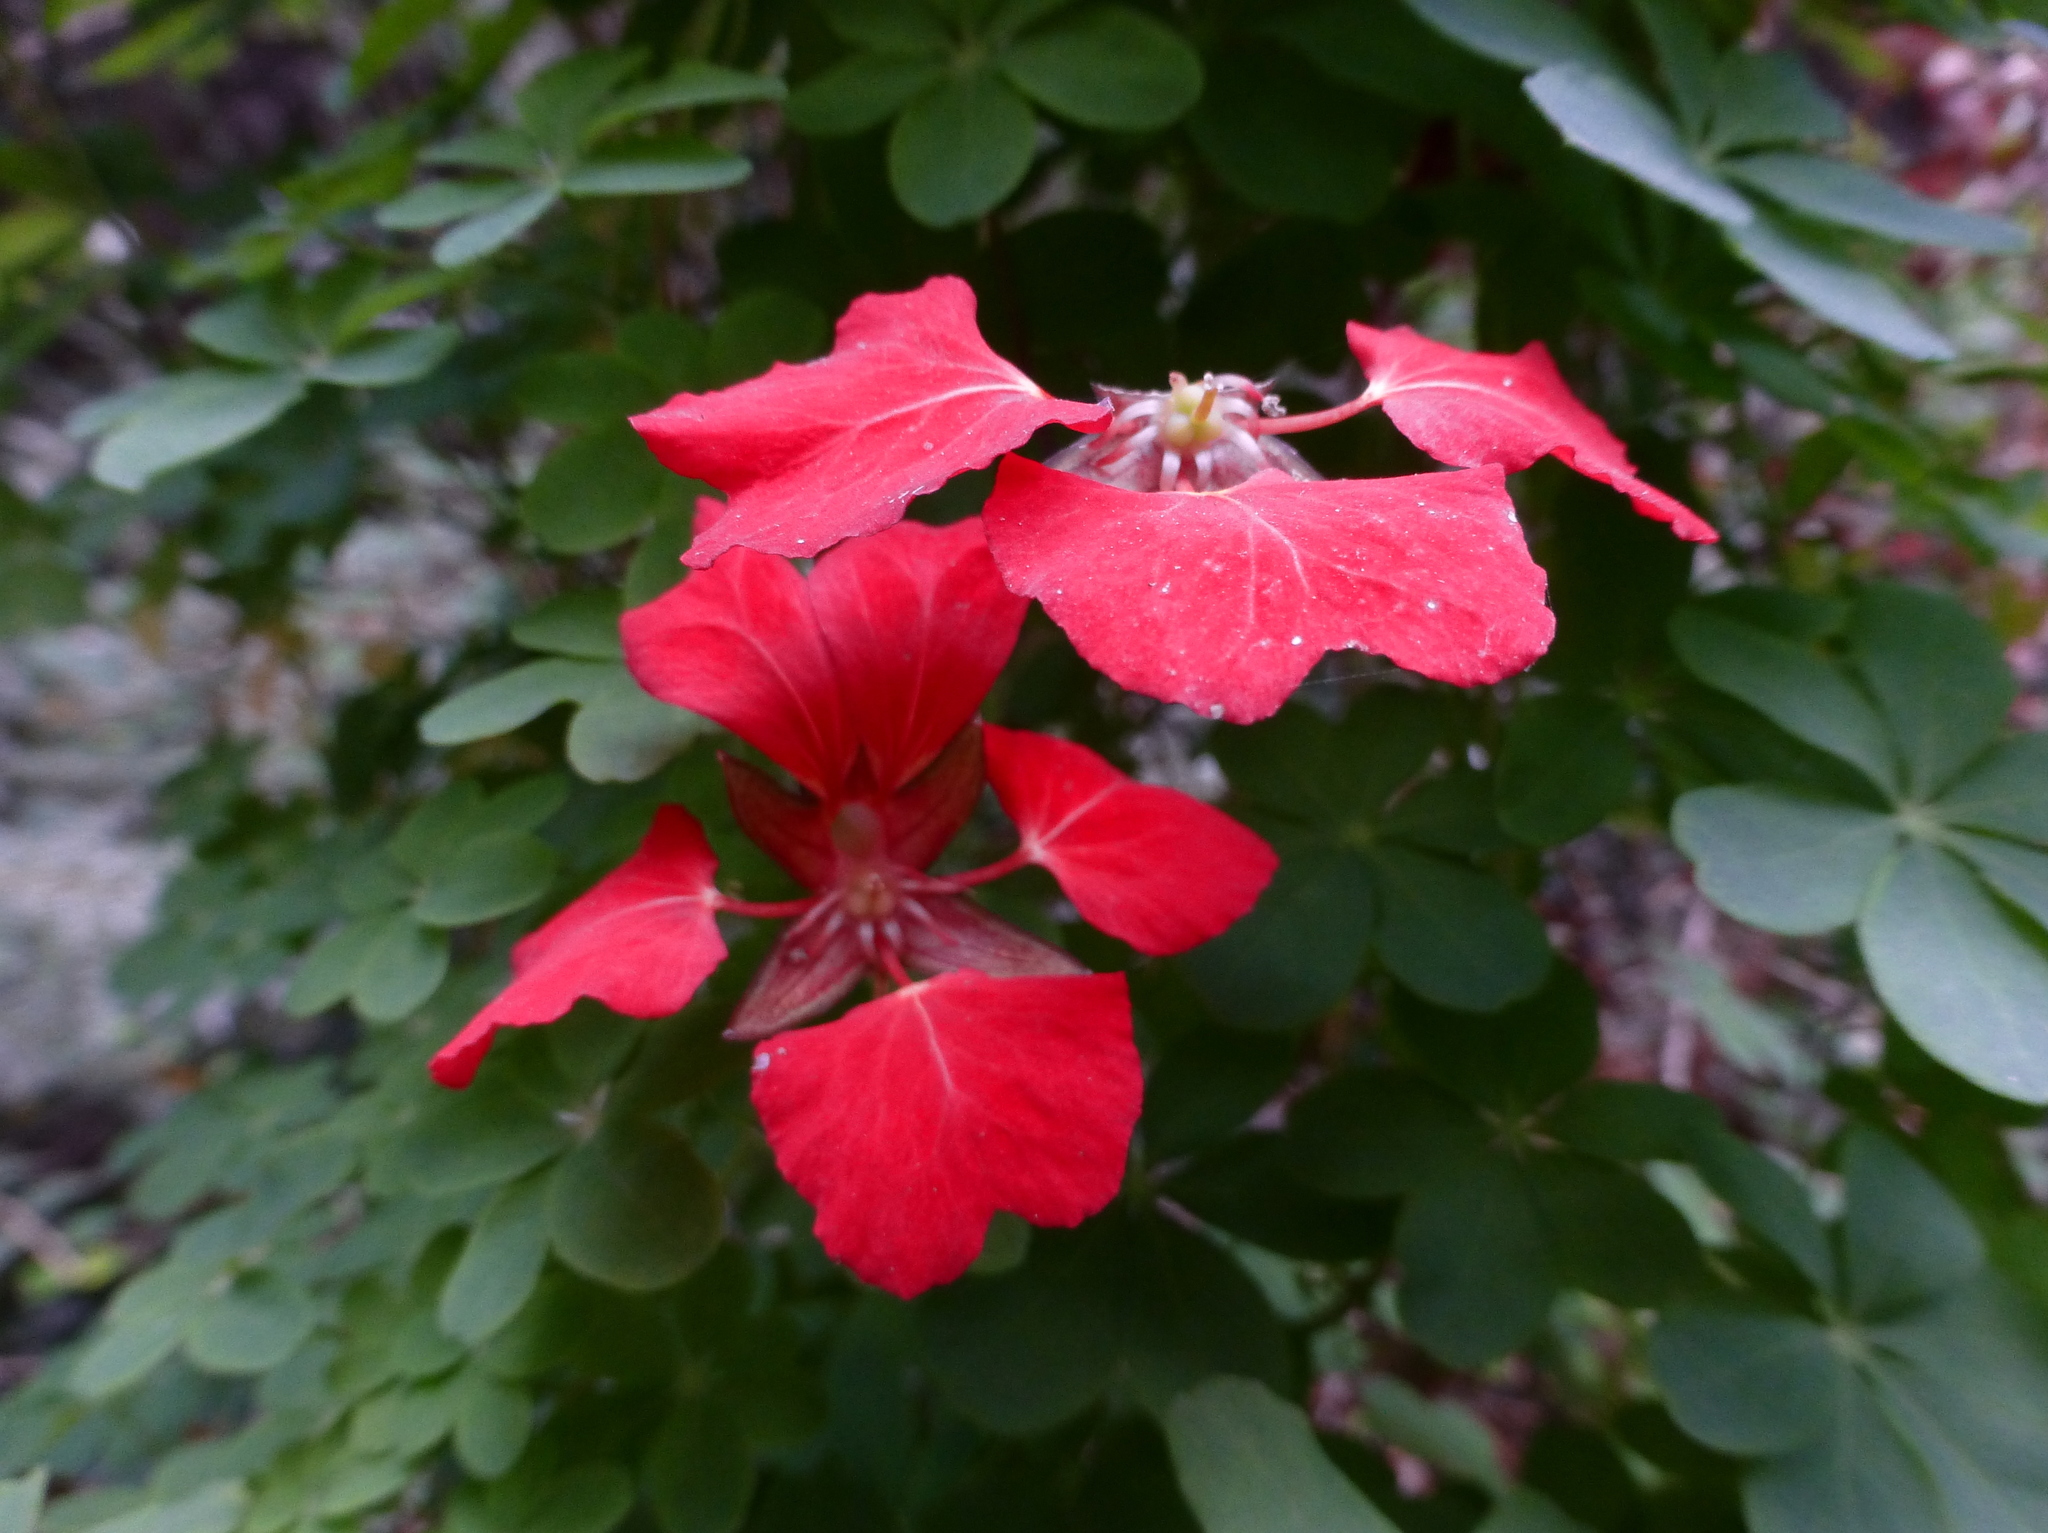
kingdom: Plantae
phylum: Tracheophyta
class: Magnoliopsida
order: Brassicales
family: Tropaeolaceae
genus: Tropaeolum
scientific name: Tropaeolum speciosum
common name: Flame nasturtium
